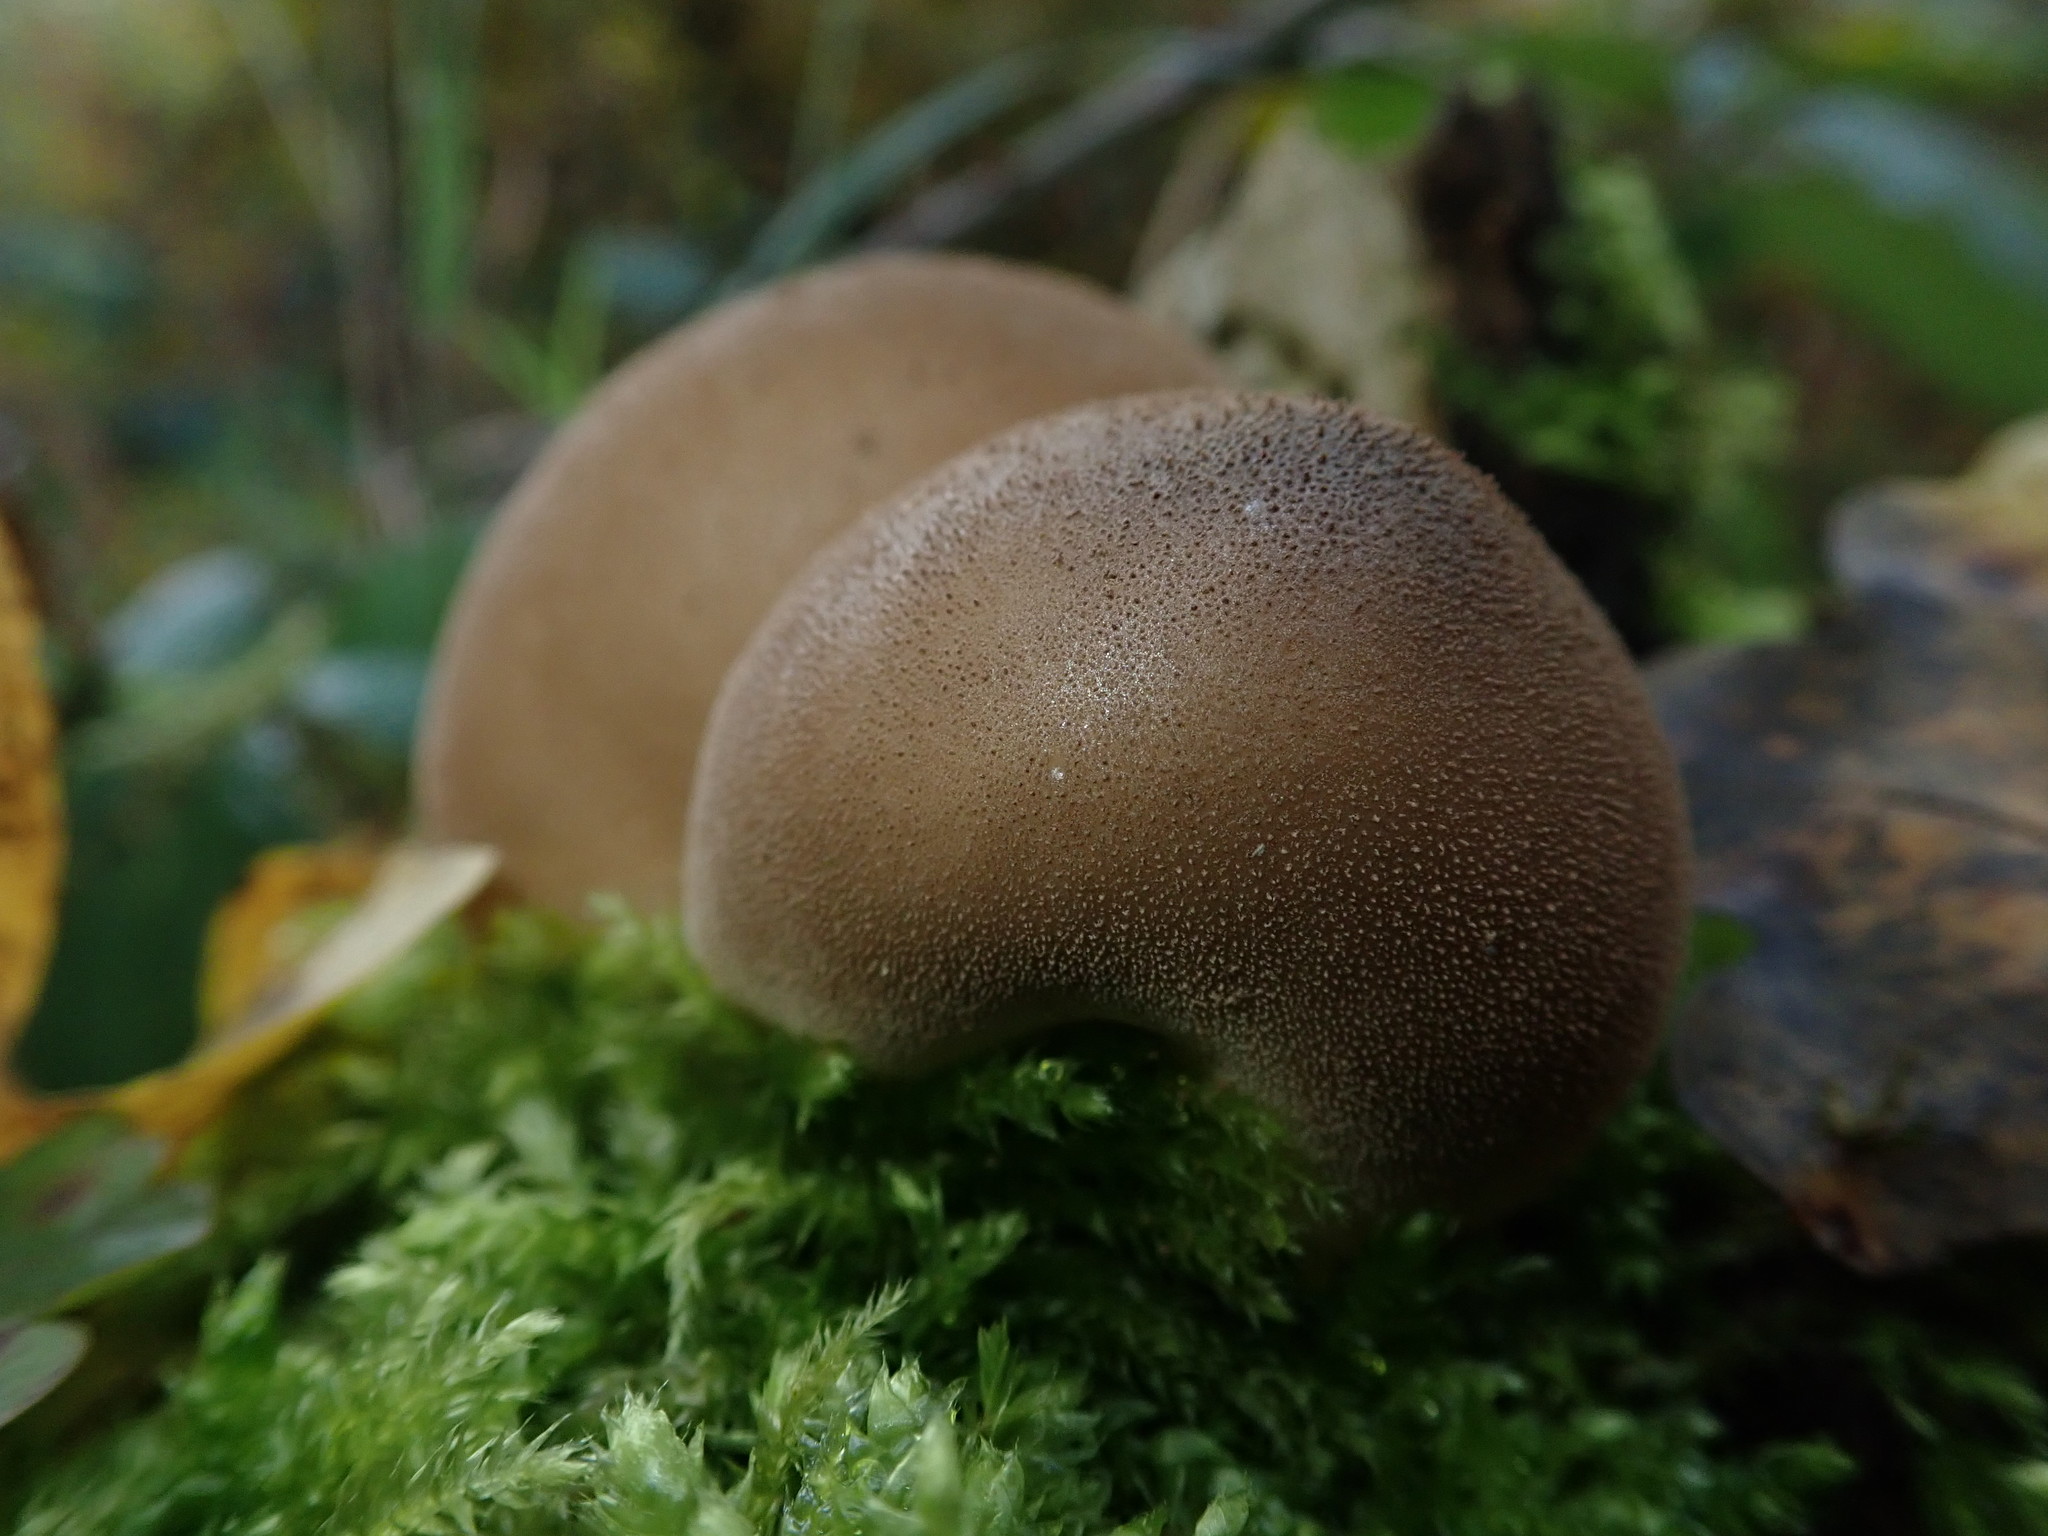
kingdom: Fungi
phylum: Basidiomycota
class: Agaricomycetes
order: Agaricales
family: Lycoperdaceae
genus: Apioperdon
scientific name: Apioperdon pyriforme
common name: Pear-shaped puffball
